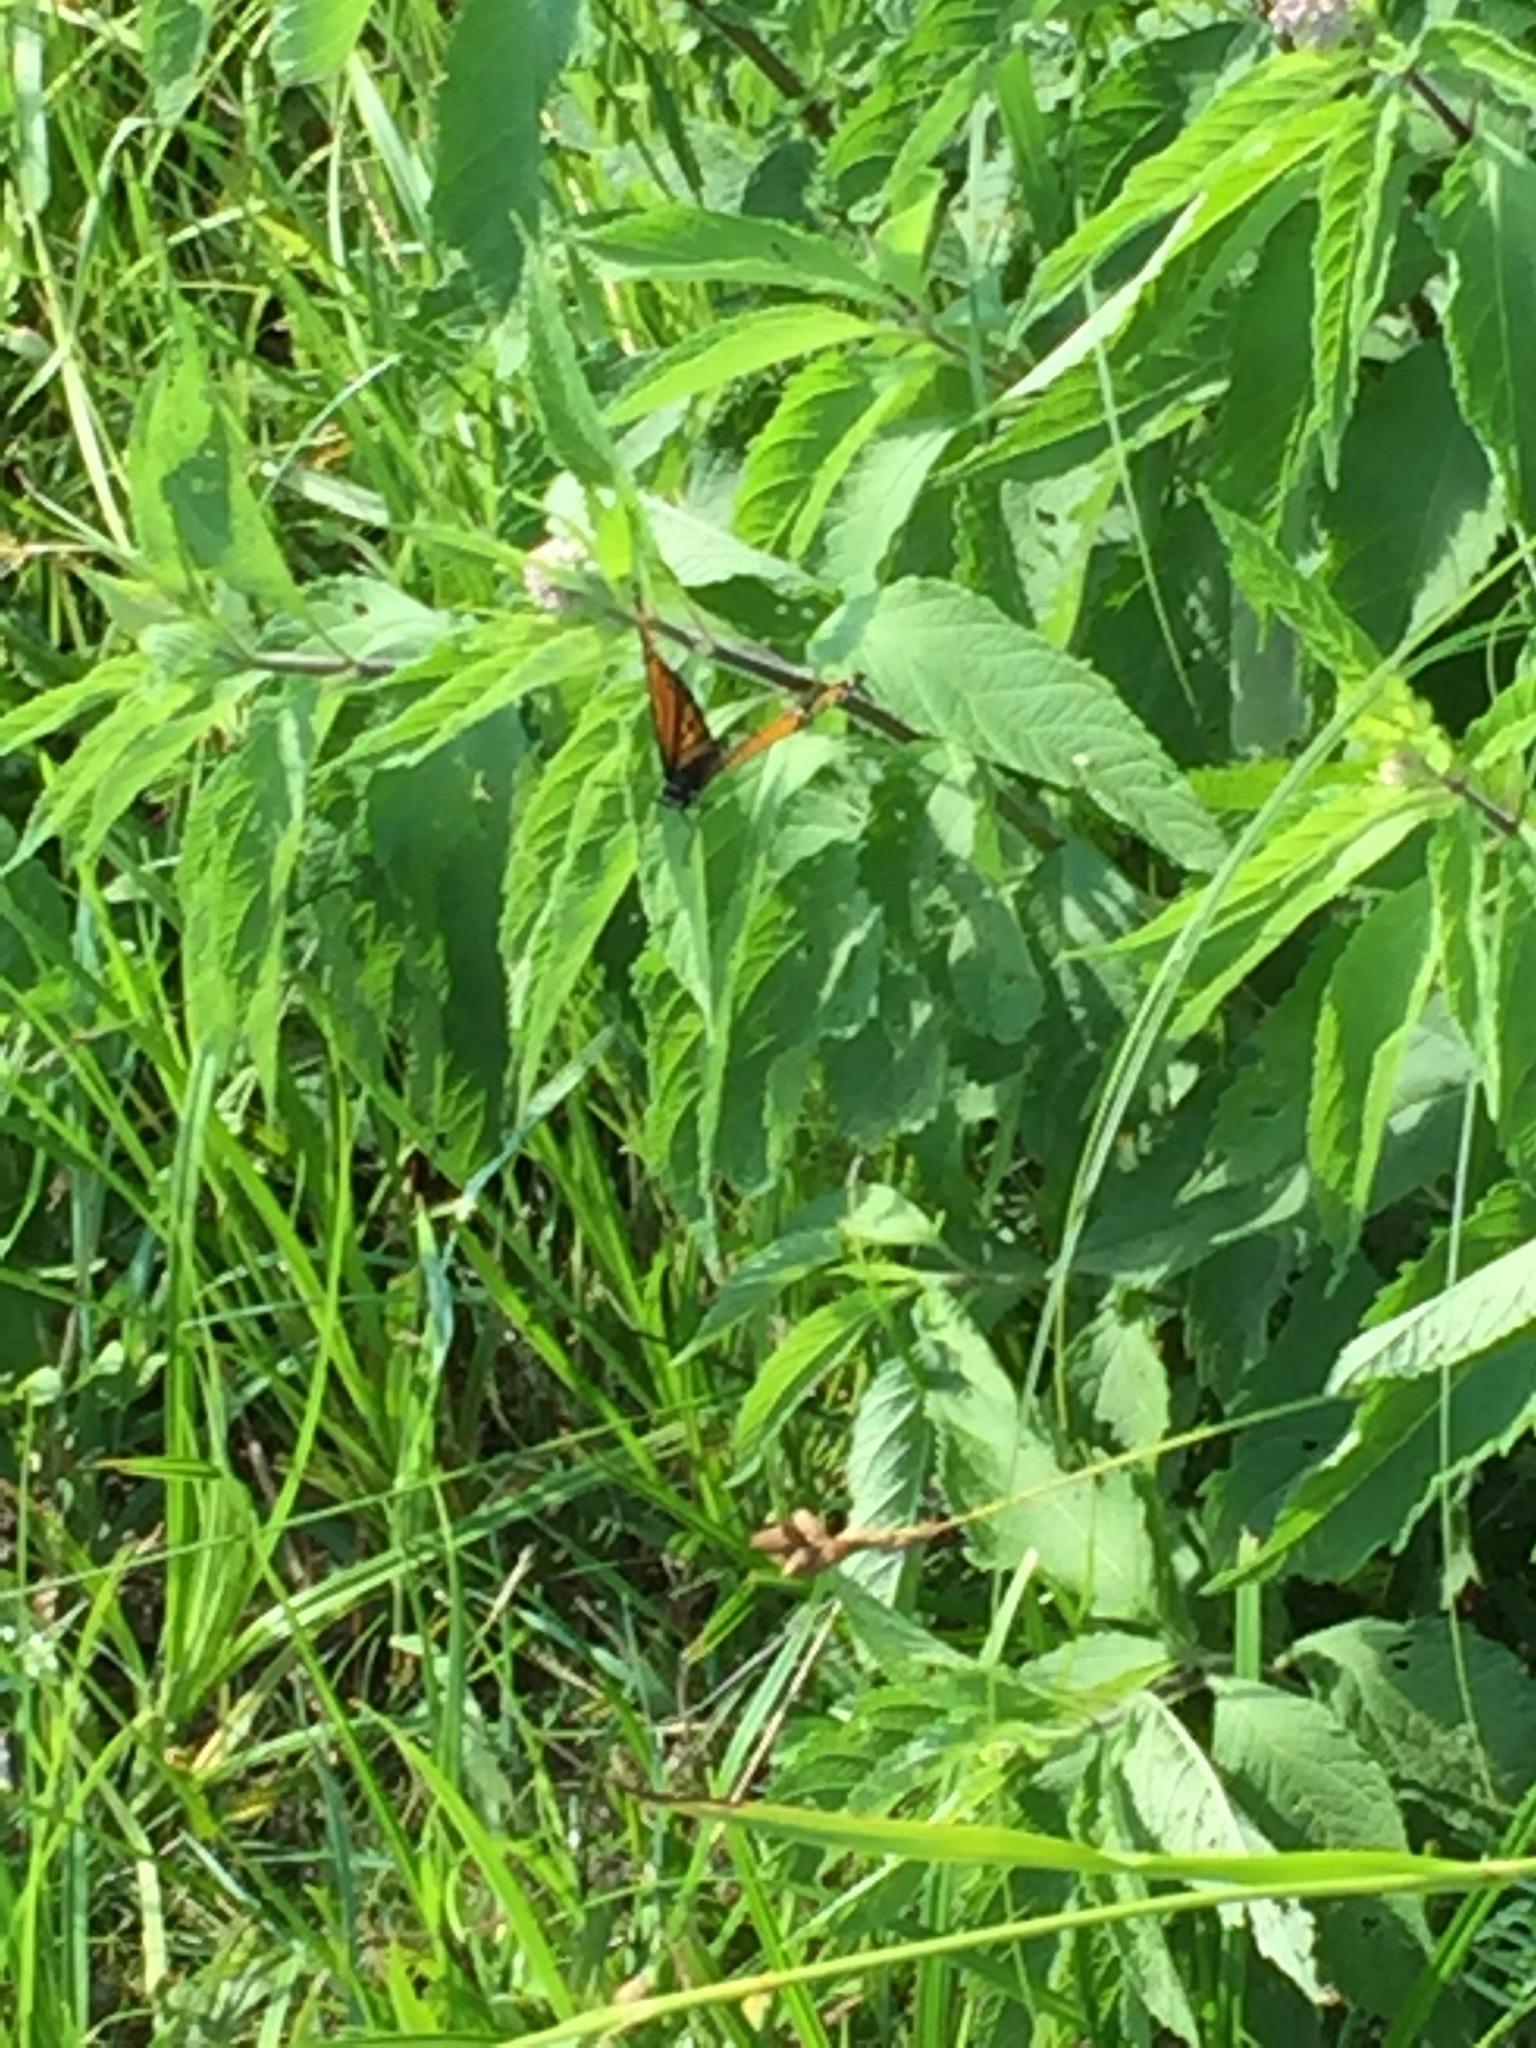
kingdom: Animalia
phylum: Arthropoda
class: Insecta
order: Lepidoptera
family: Nymphalidae
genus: Limenitis
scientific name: Limenitis archippus
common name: Viceroy
